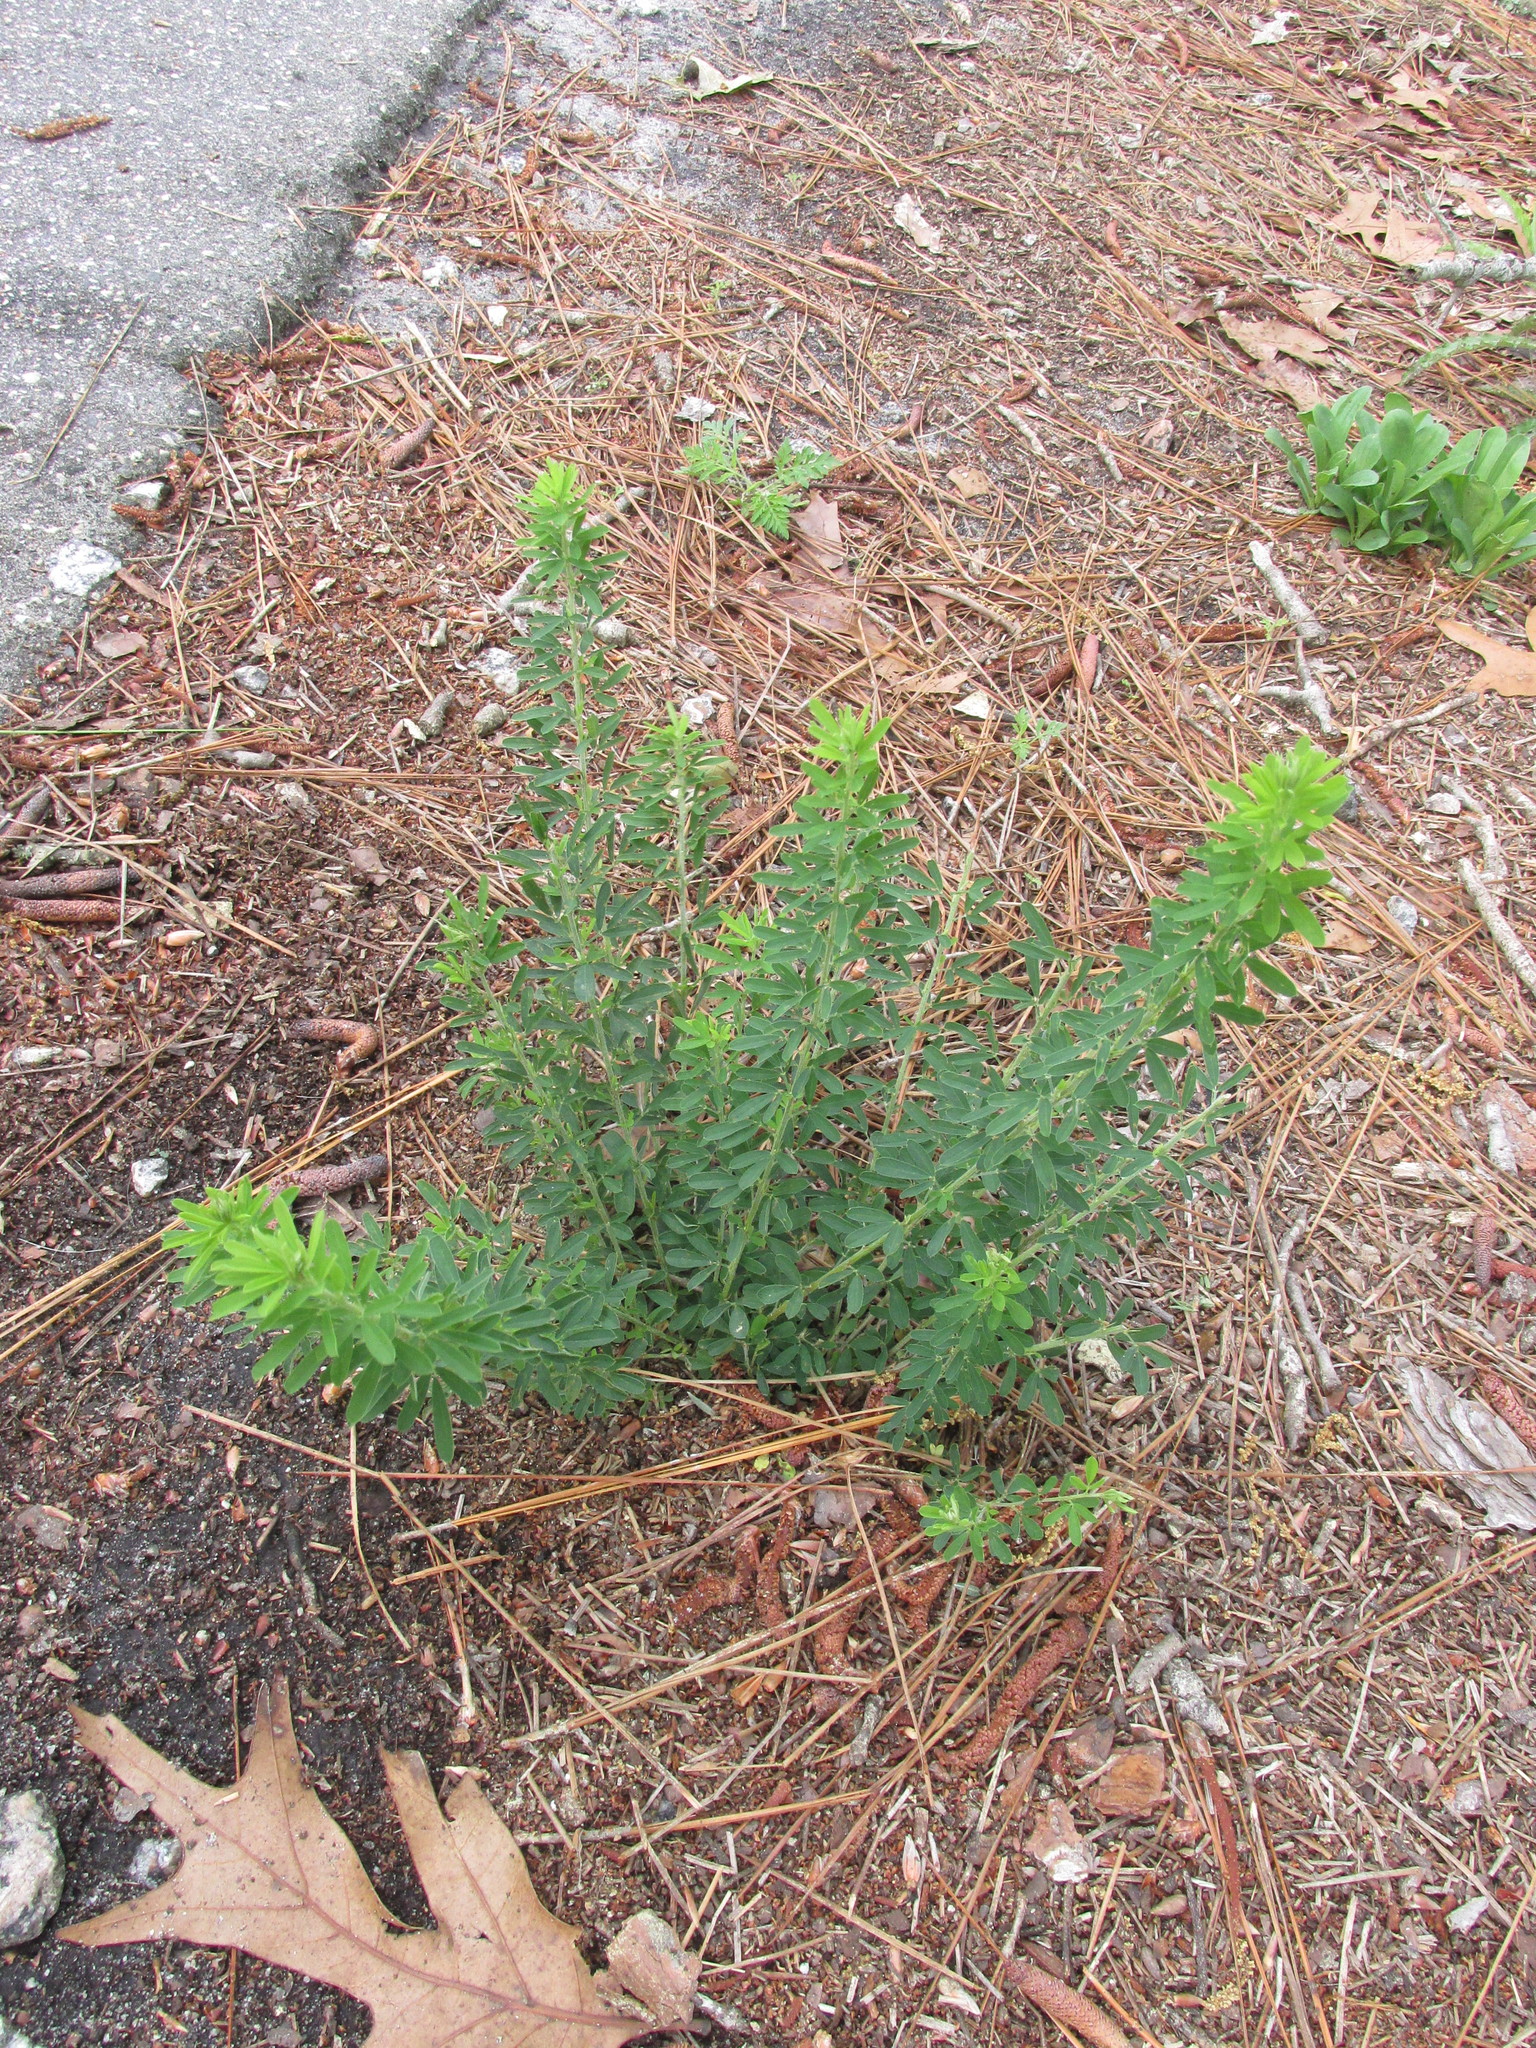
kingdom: Plantae
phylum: Tracheophyta
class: Magnoliopsida
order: Fabales
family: Fabaceae
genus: Lespedeza
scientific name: Lespedeza cuneata
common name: Chinese bush-clover
